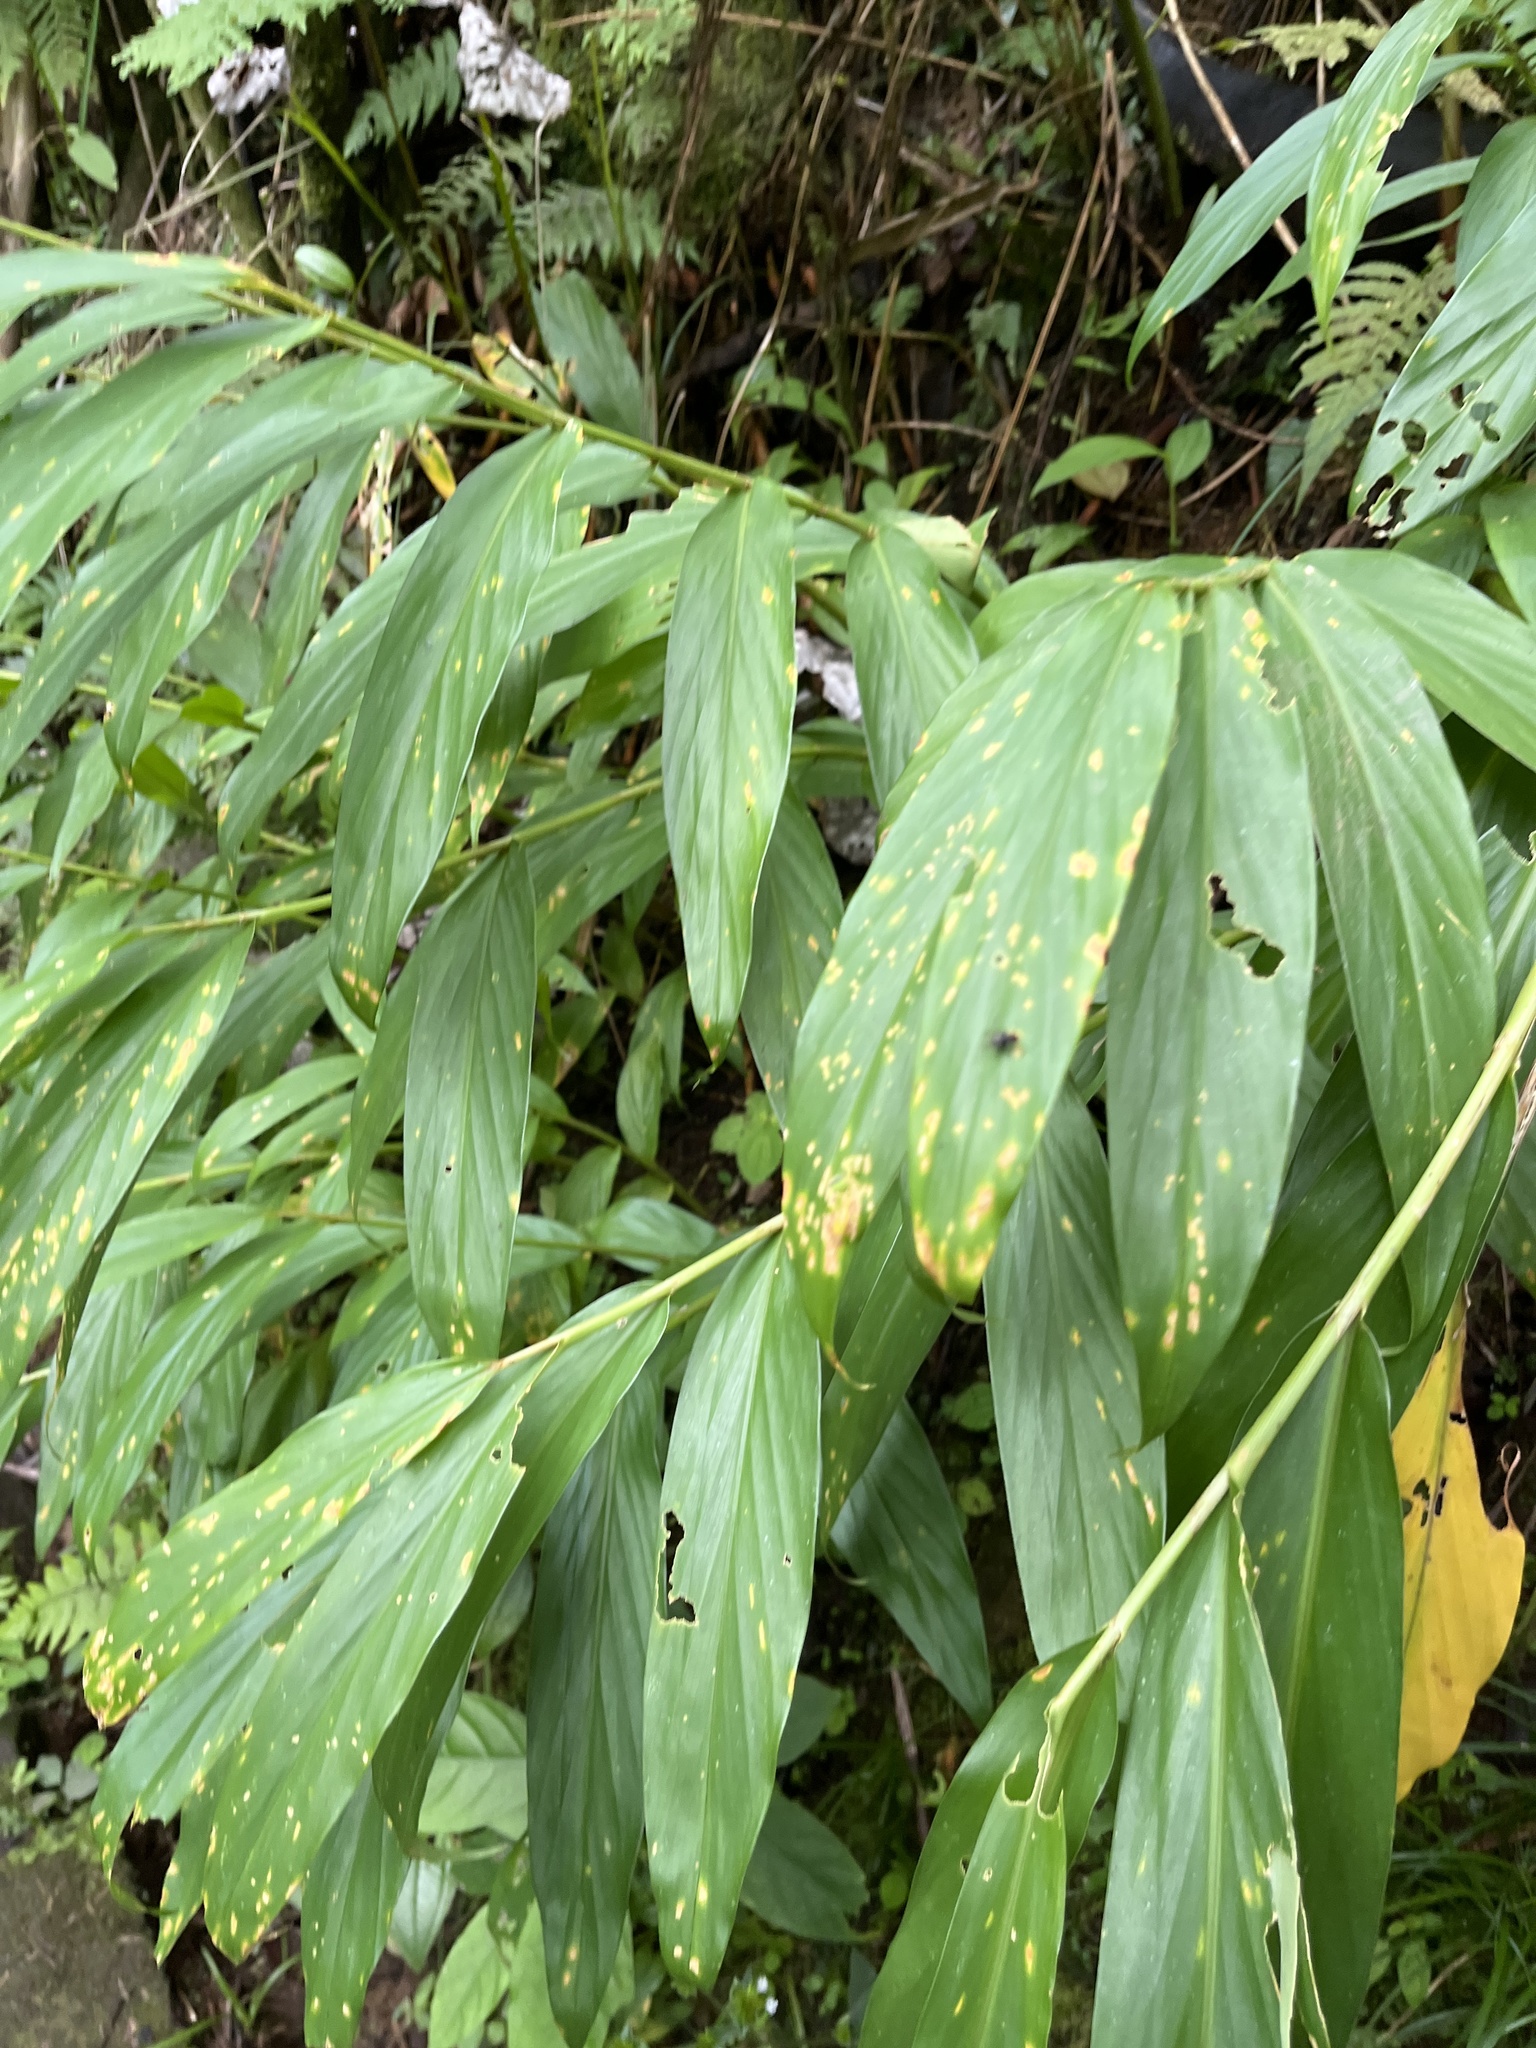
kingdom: Plantae
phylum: Tracheophyta
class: Liliopsida
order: Zingiberales
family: Zingiberaceae
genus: Hedychium
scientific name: Hedychium coronarium
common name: White garland-lily
